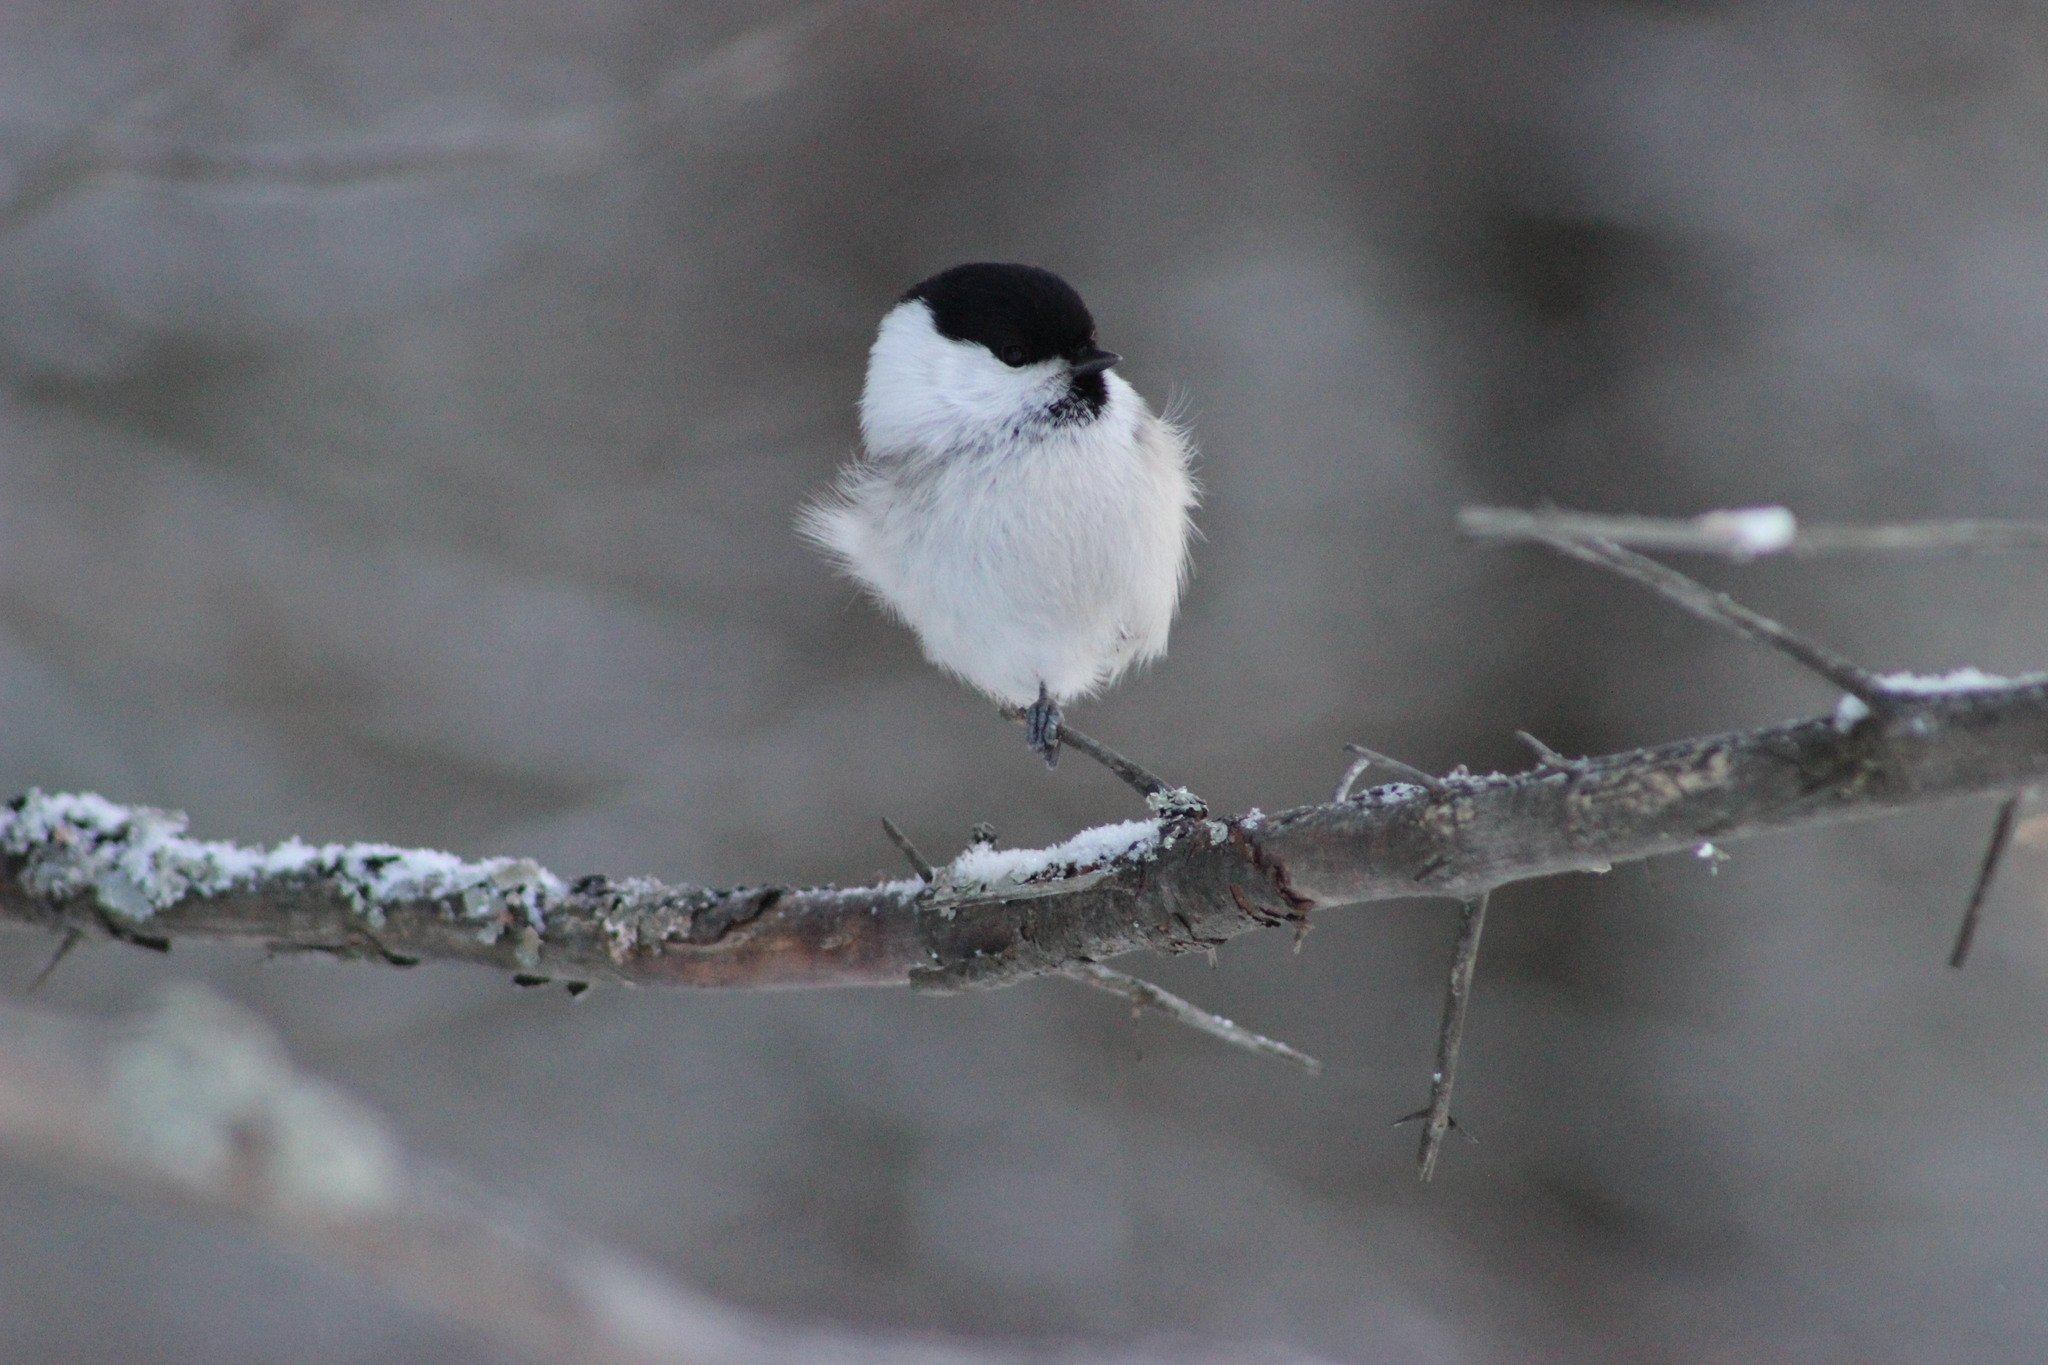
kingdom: Animalia
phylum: Chordata
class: Aves
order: Passeriformes
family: Paridae
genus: Poecile
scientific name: Poecile montanus
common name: Willow tit
